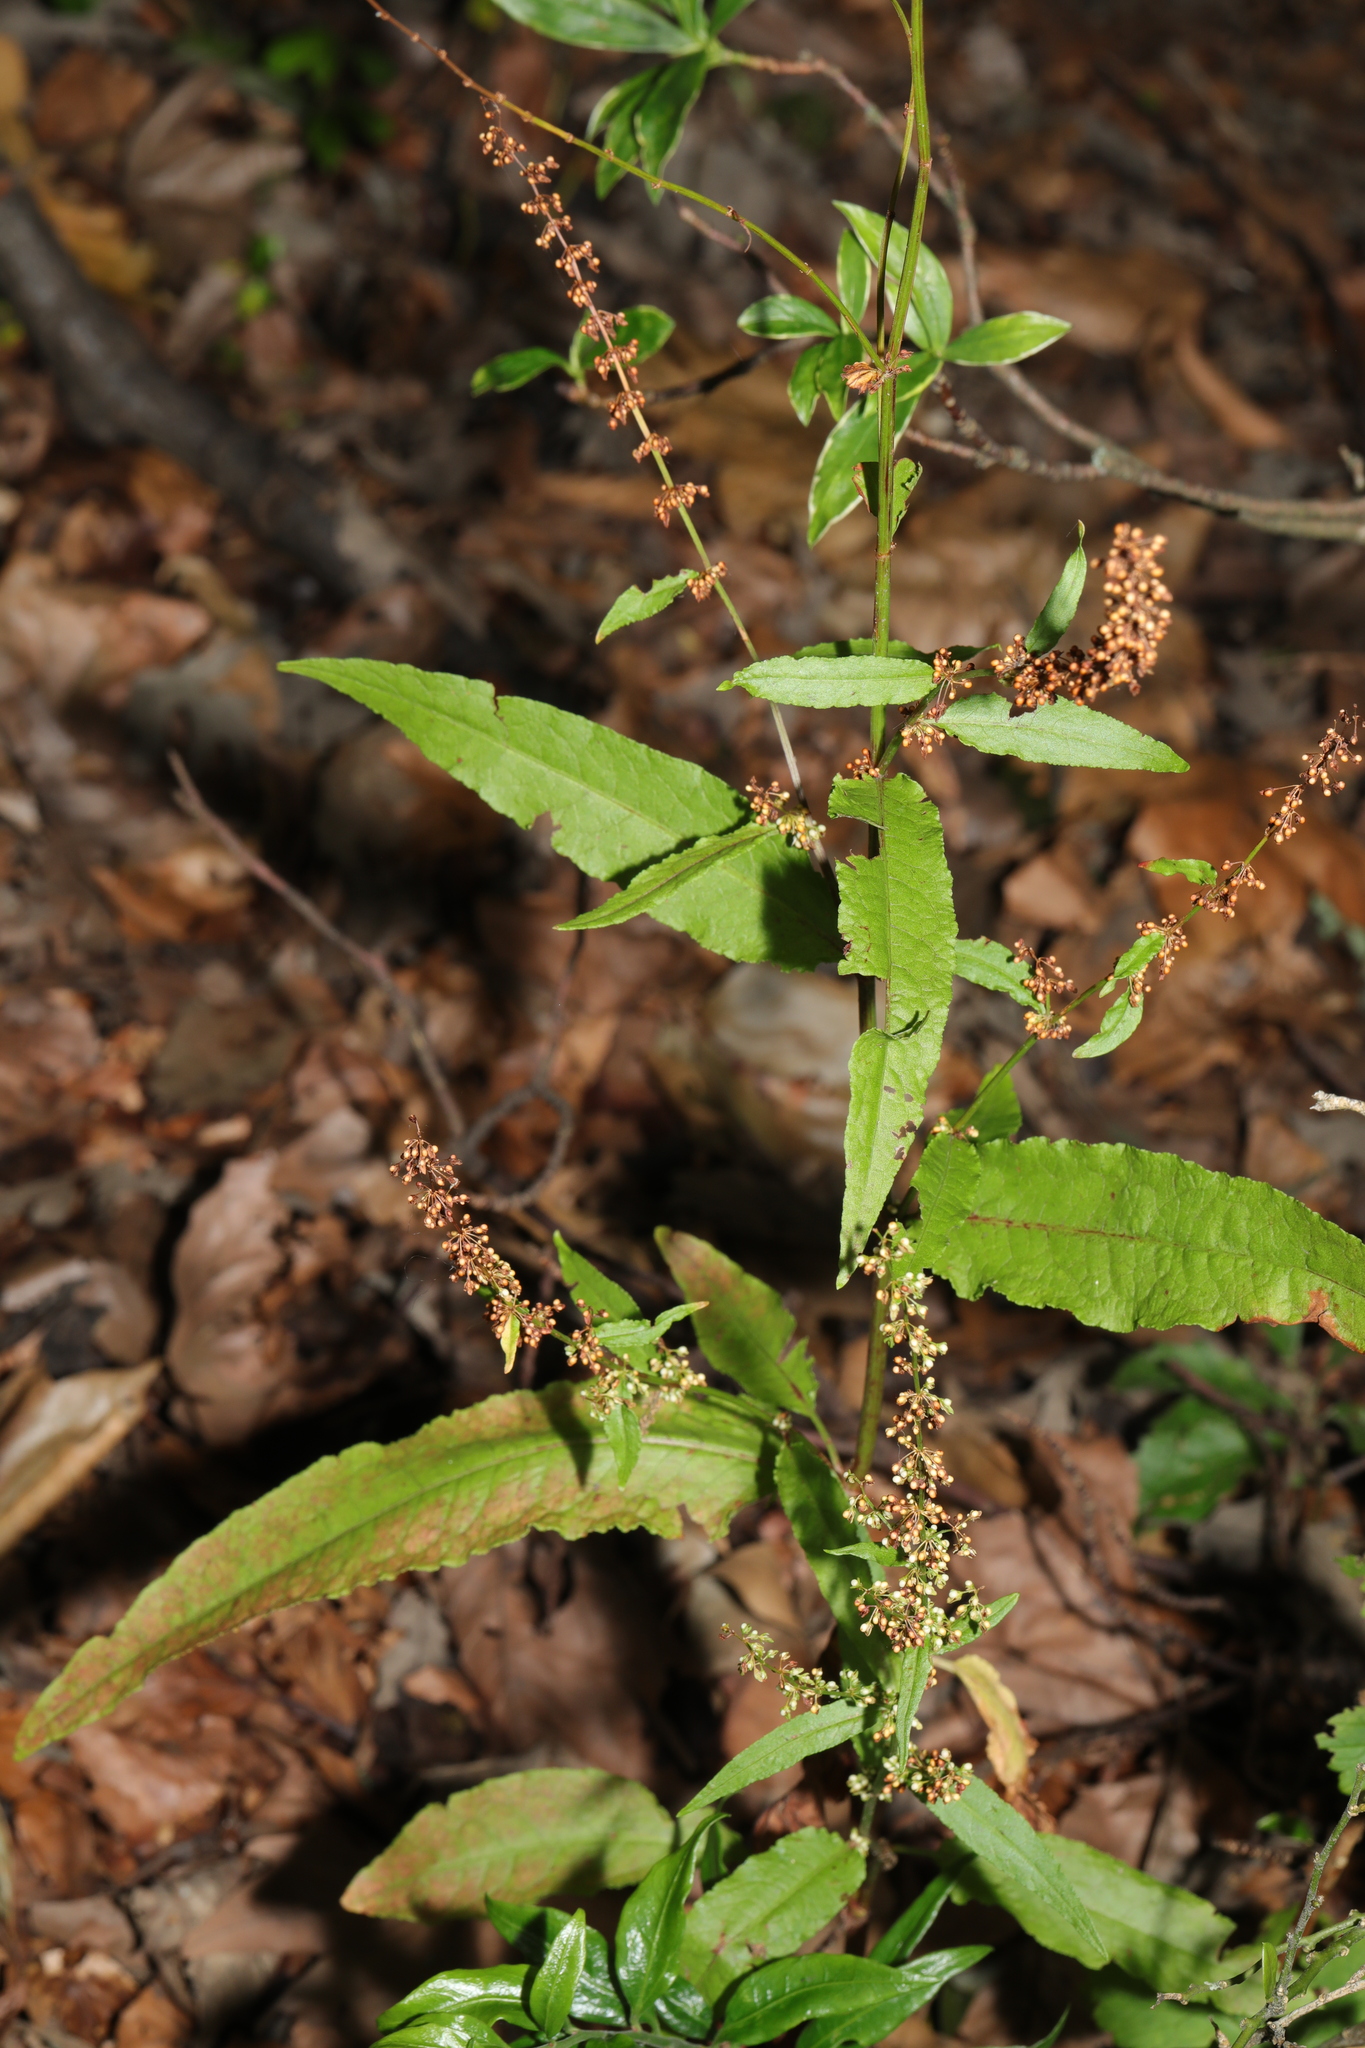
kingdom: Plantae
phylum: Tracheophyta
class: Magnoliopsida
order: Caryophyllales
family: Polygonaceae
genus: Rumex
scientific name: Rumex sanguineus
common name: Wood dock
